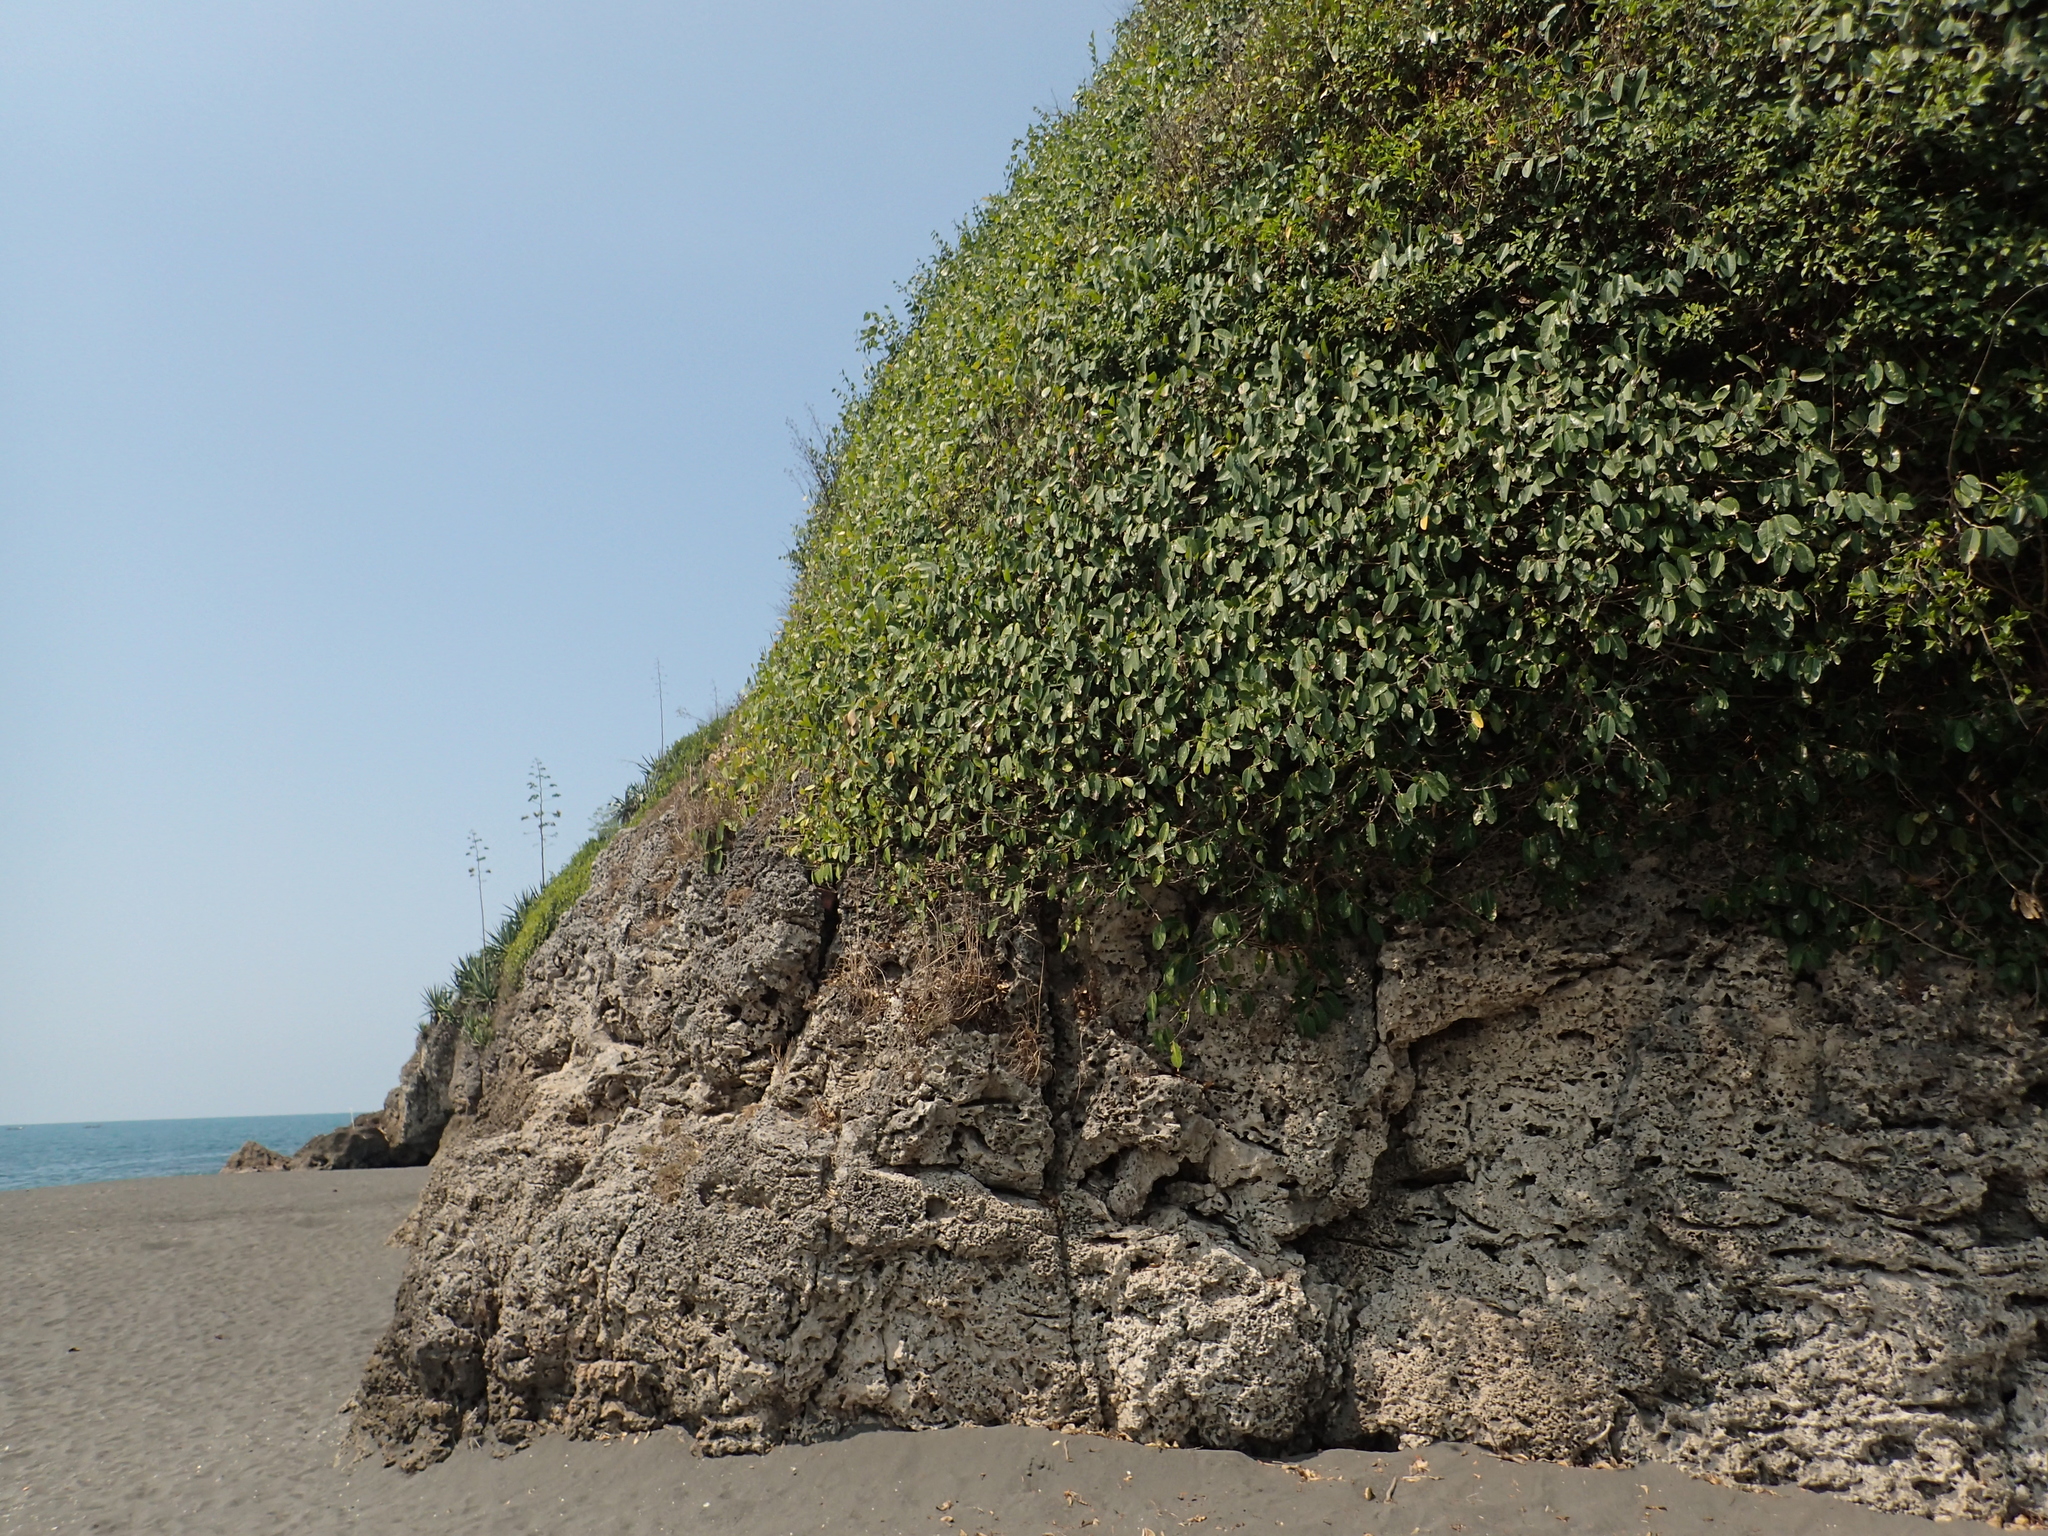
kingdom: Plantae
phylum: Tracheophyta
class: Magnoliopsida
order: Rosales
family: Moraceae
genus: Ficus
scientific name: Ficus tinctoria
